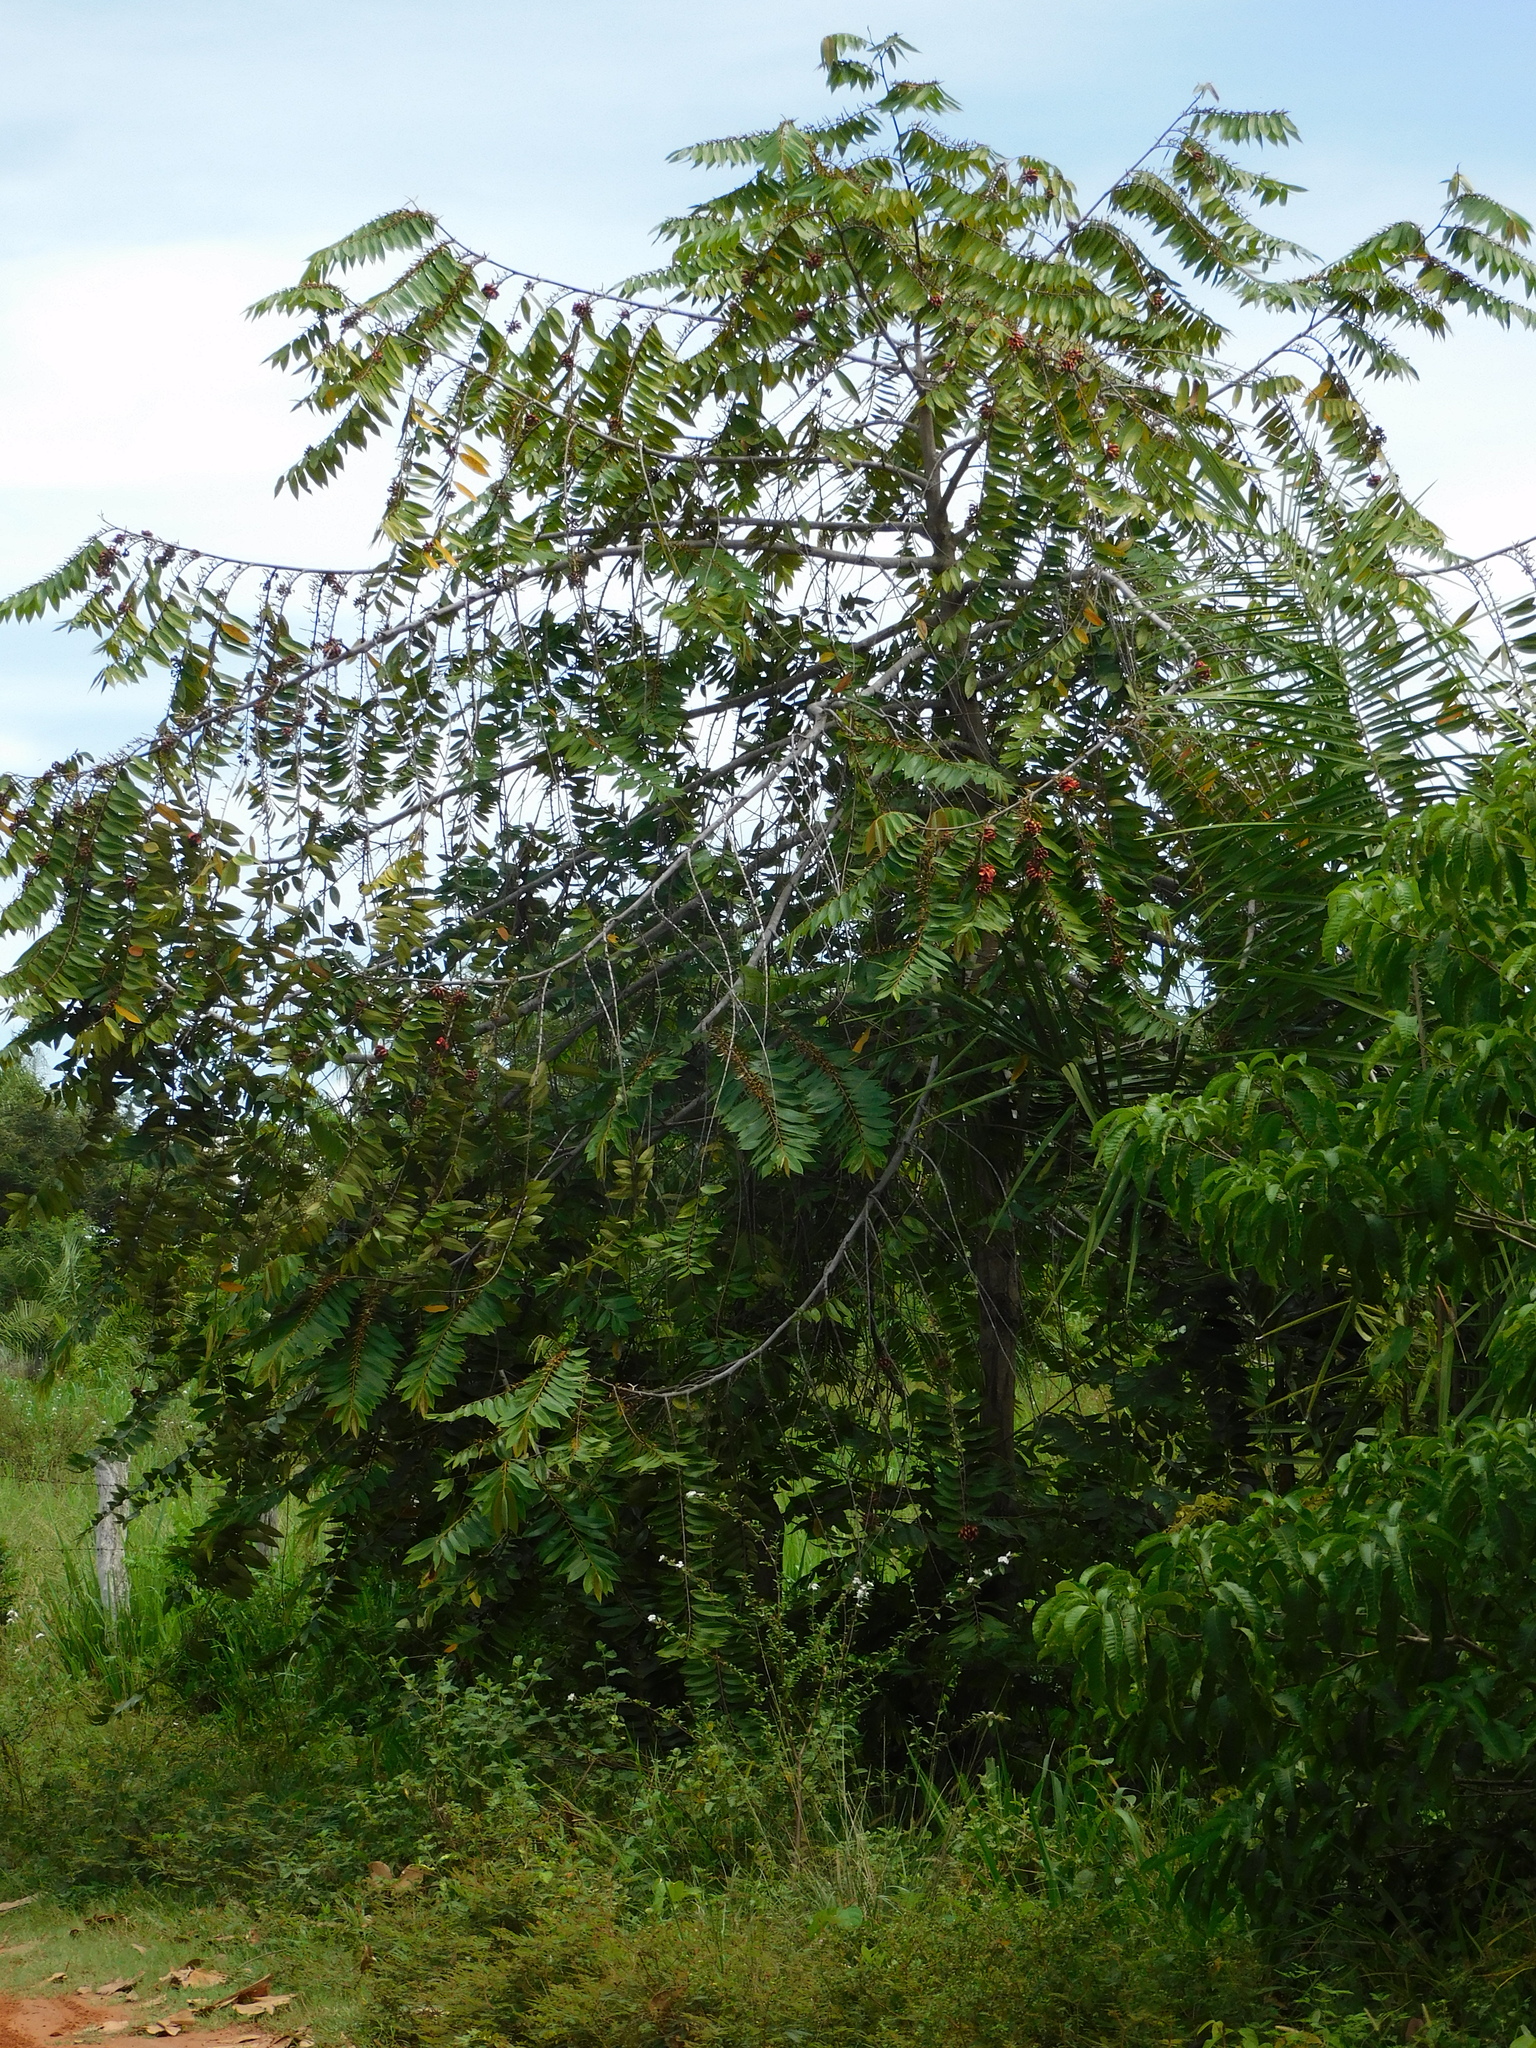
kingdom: Plantae
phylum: Tracheophyta
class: Magnoliopsida
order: Magnoliales
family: Annonaceae
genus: Xylopia
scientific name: Xylopia aromatica
